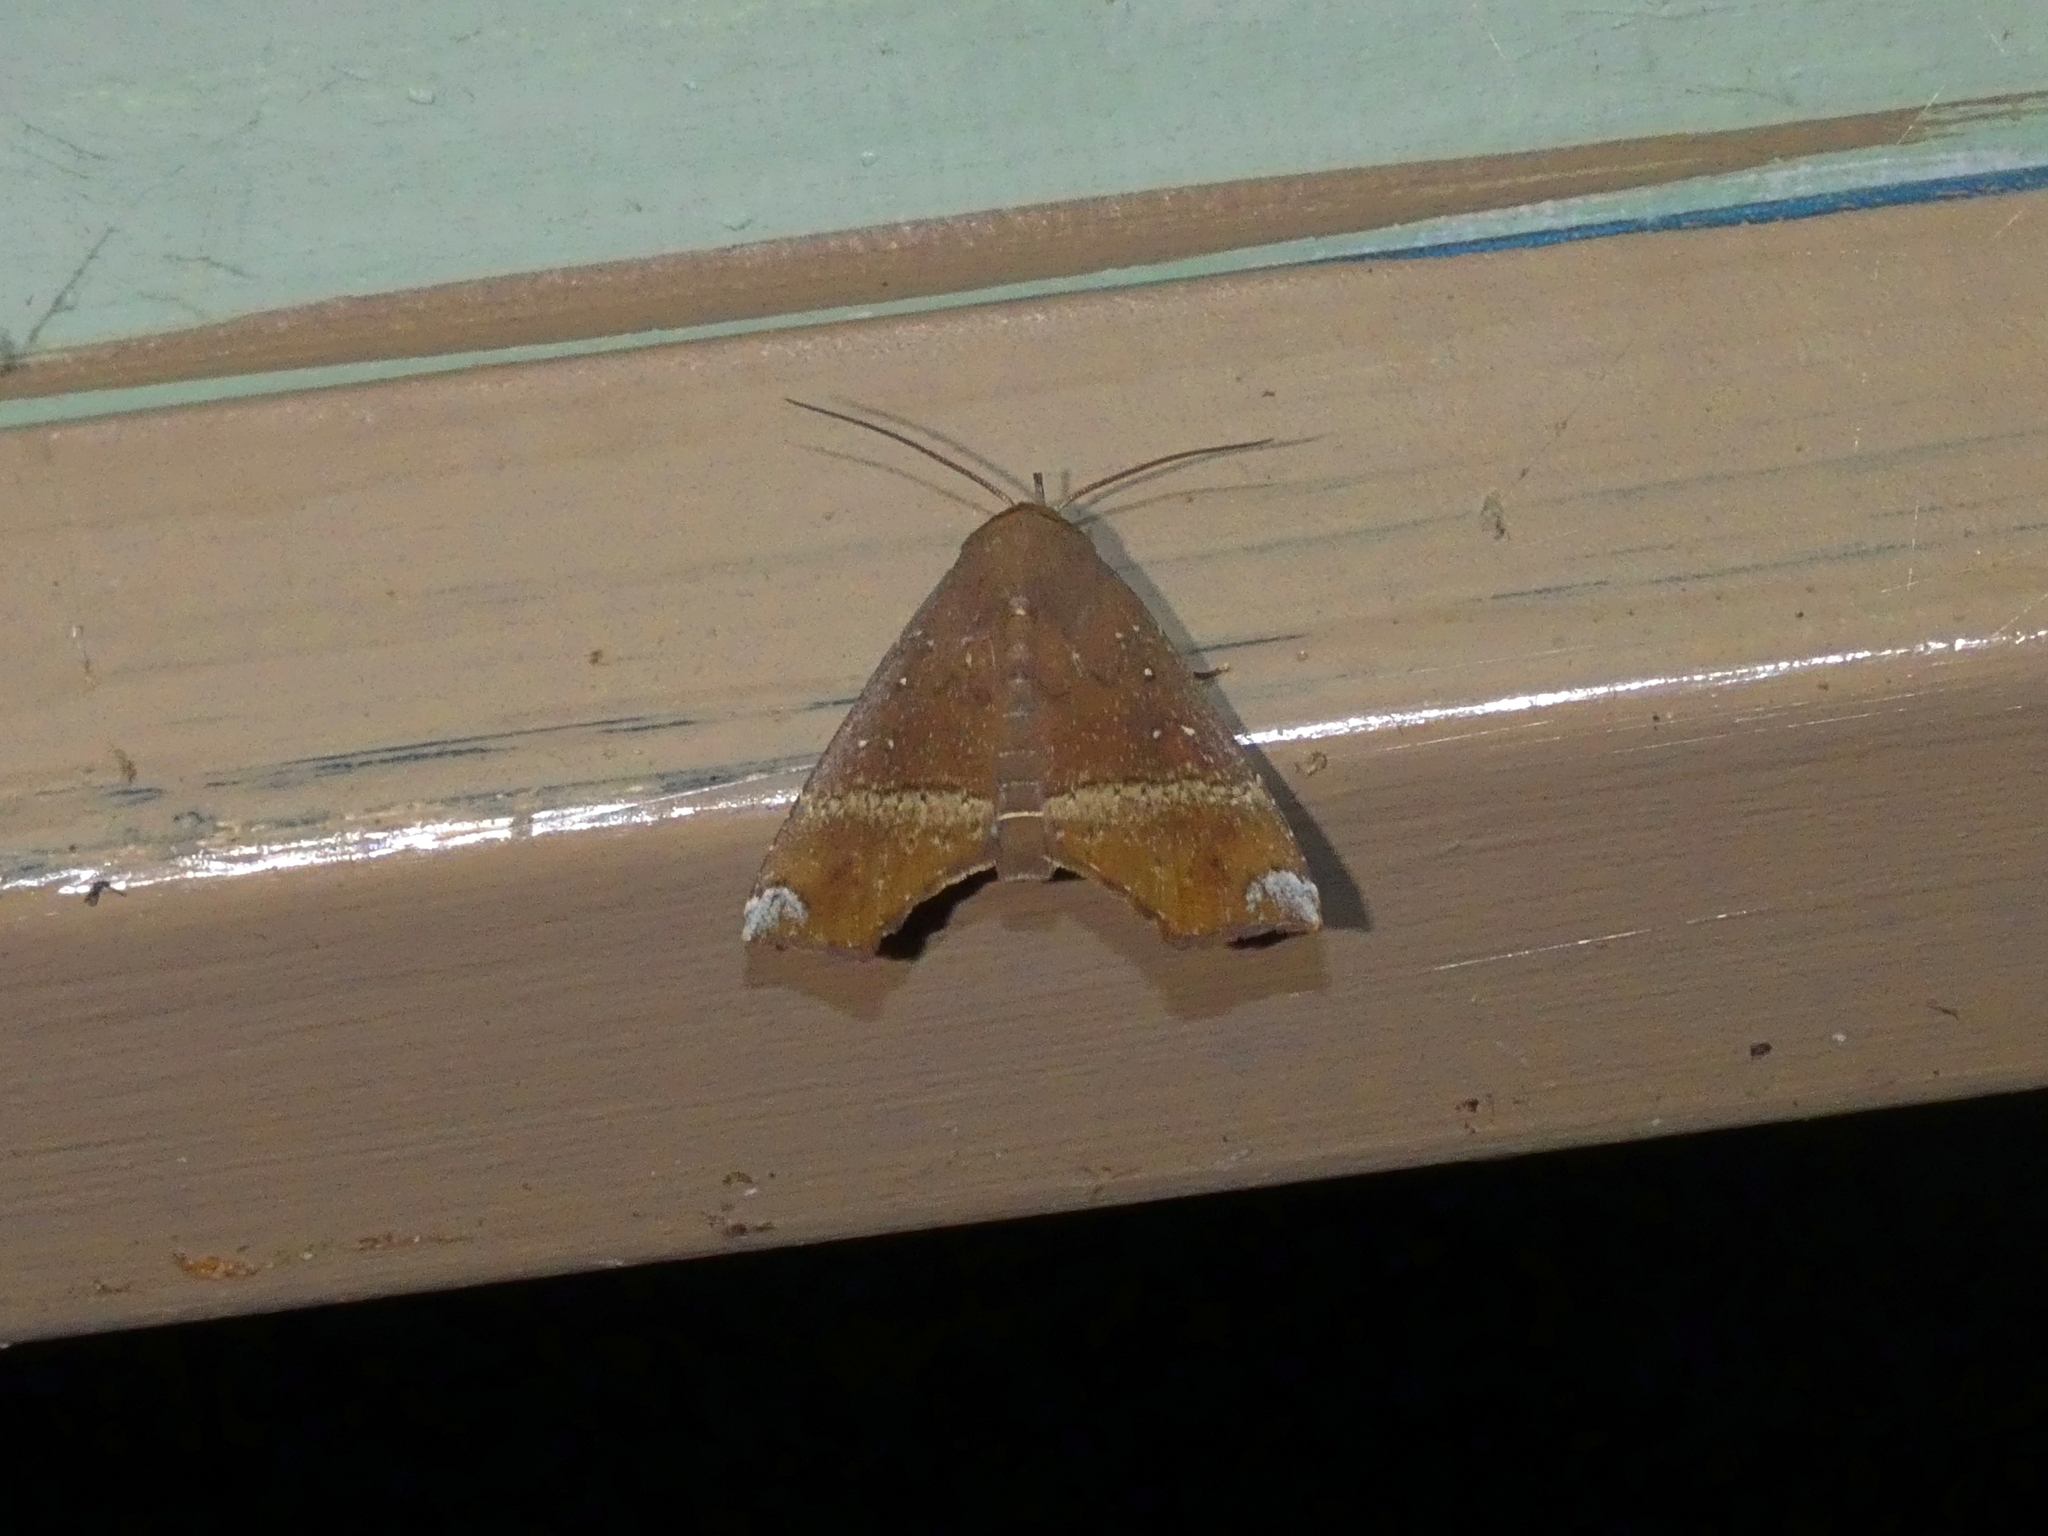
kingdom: Animalia
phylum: Arthropoda
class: Insecta
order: Lepidoptera
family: Erebidae
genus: Savara
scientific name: Savara variabilis
